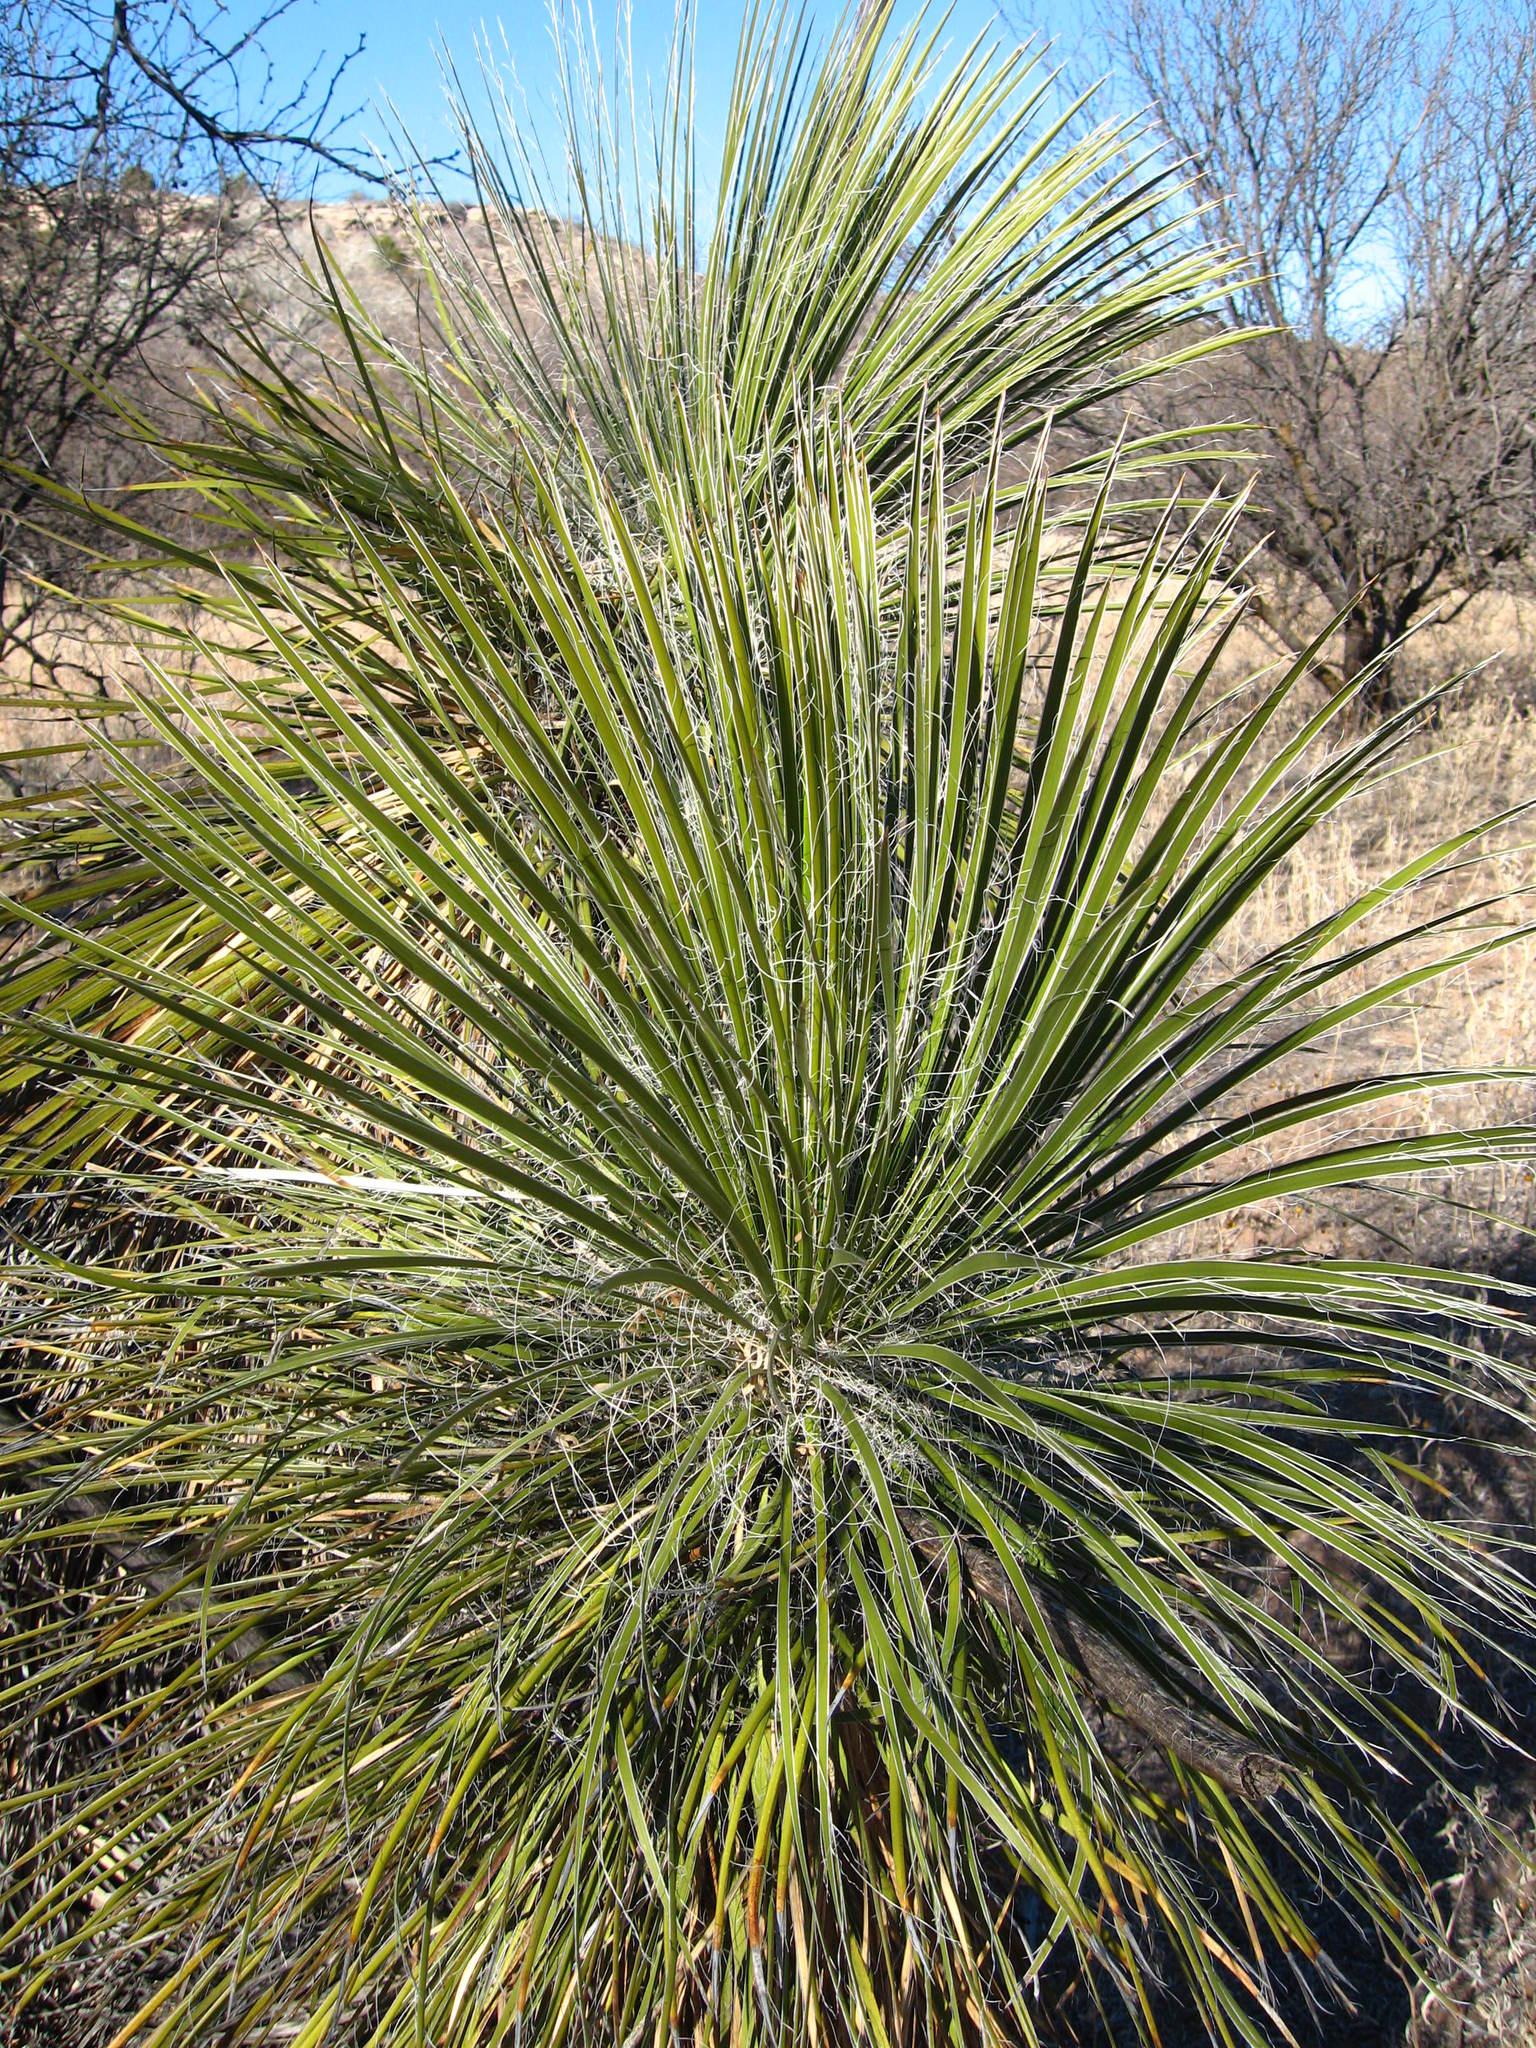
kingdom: Plantae
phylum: Tracheophyta
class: Liliopsida
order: Asparagales
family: Asparagaceae
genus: Yucca
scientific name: Yucca elata
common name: Palmella
